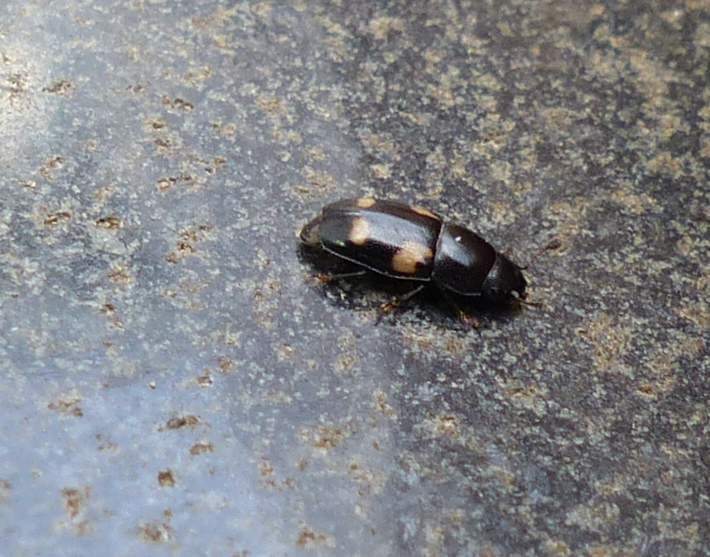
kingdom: Animalia
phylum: Arthropoda
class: Insecta
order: Coleoptera
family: Nitidulidae
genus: Glischrochilus
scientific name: Glischrochilus quadrisignatus
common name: Picnic beetle
